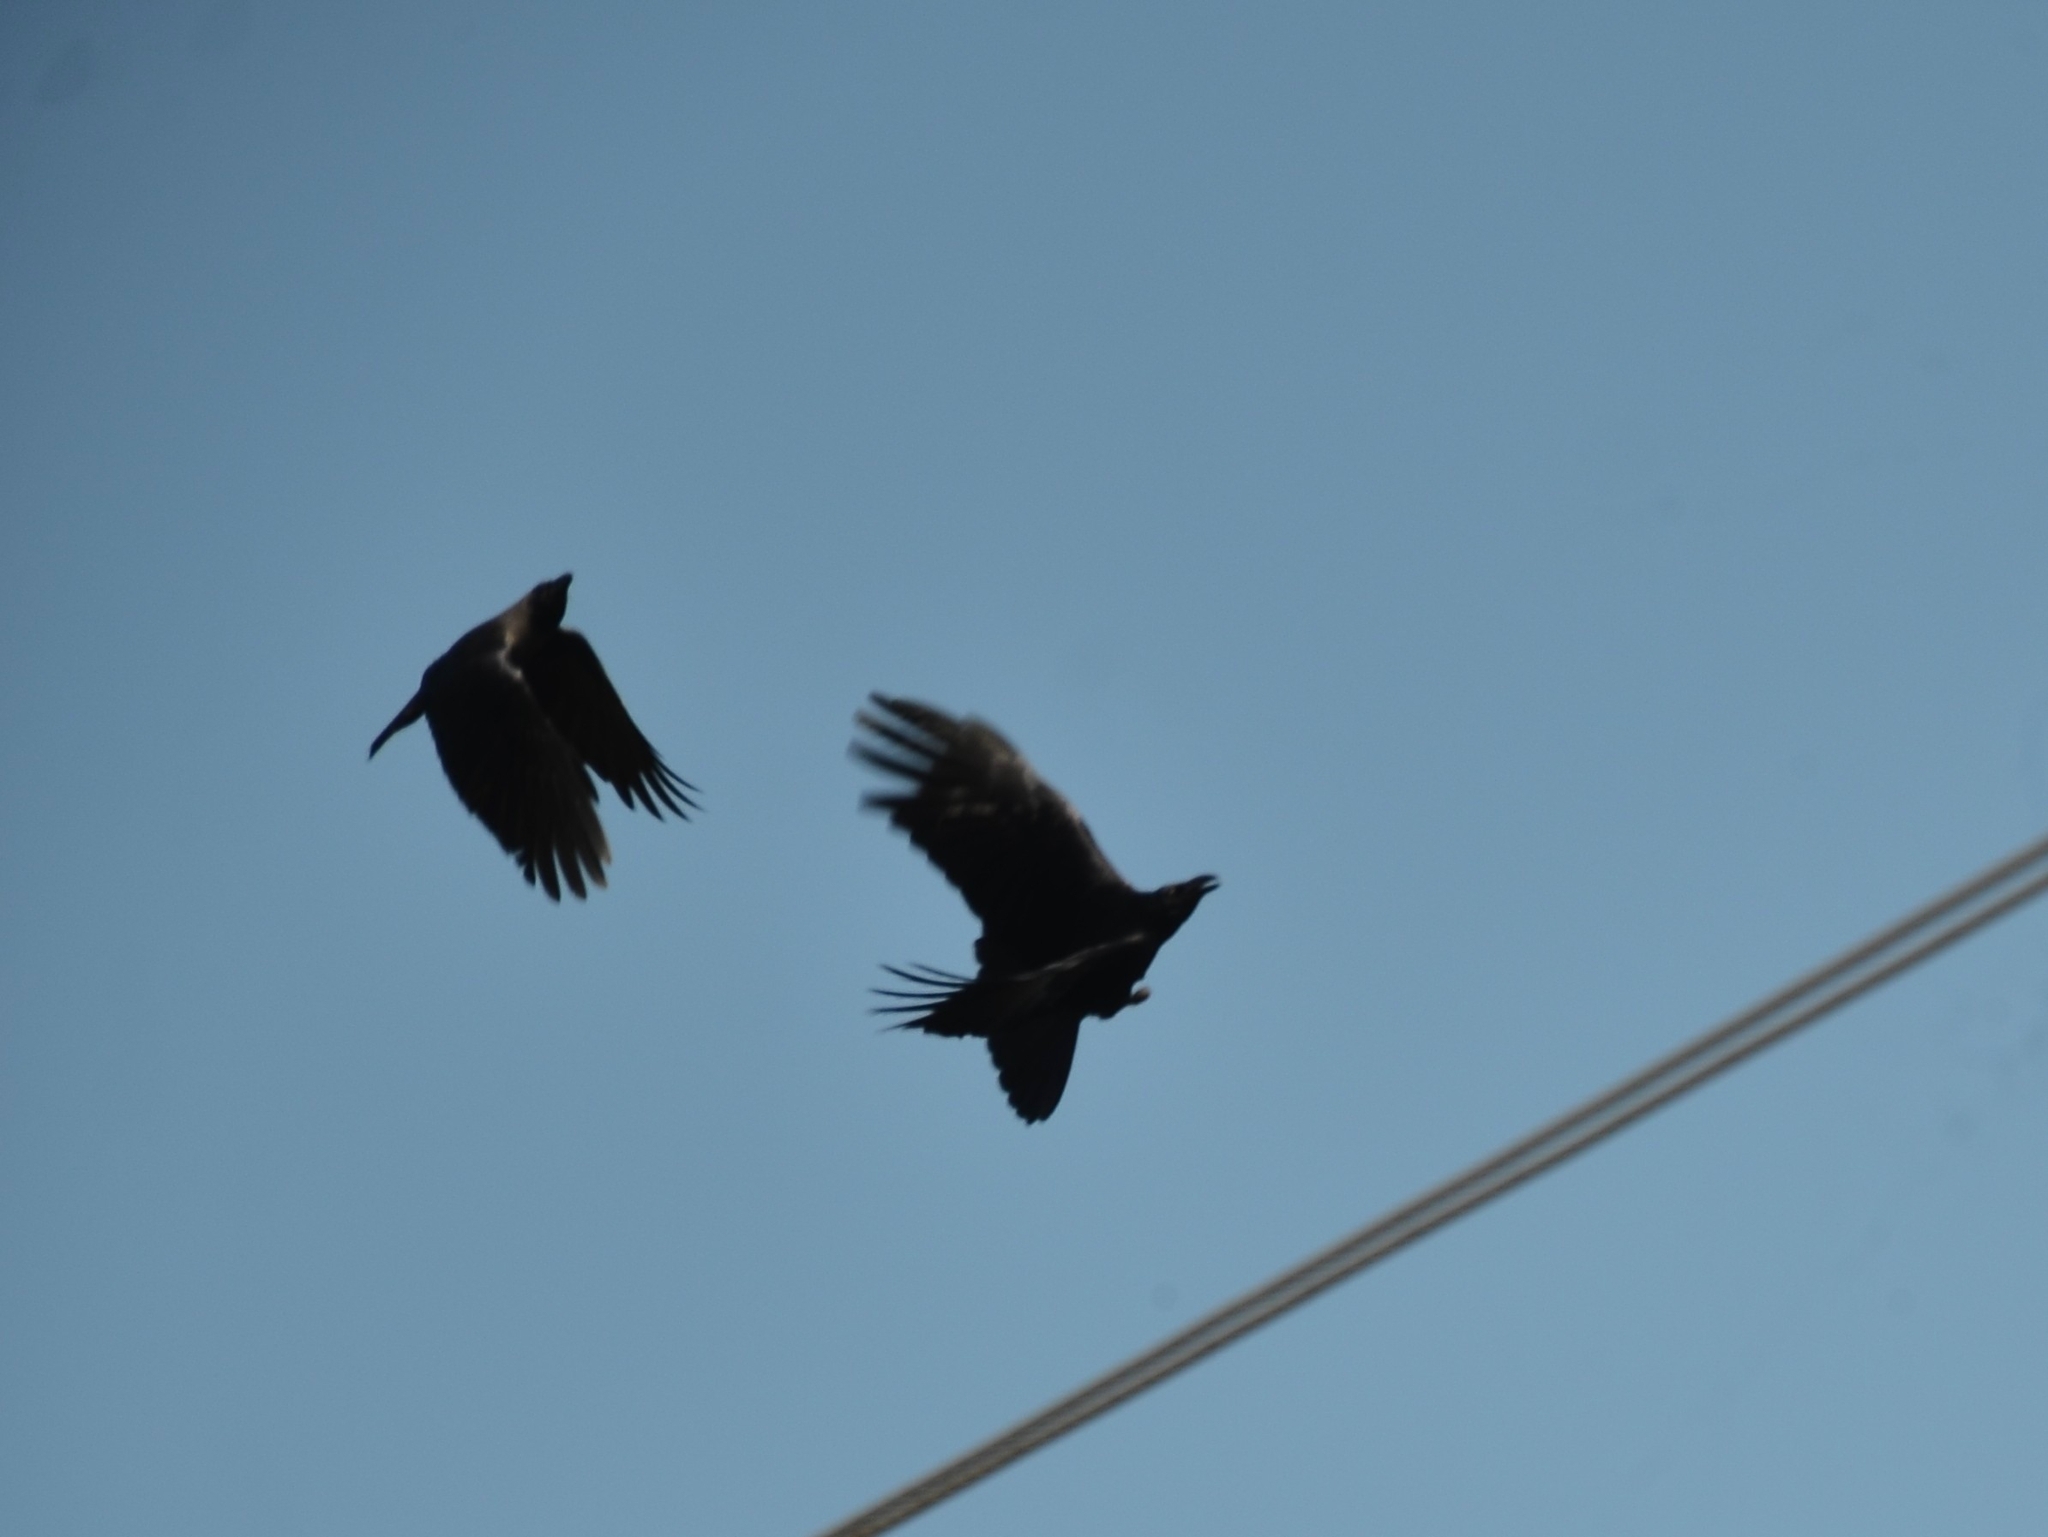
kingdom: Animalia
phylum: Chordata
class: Aves
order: Passeriformes
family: Corvidae
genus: Corvus
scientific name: Corvus splendens
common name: House crow
